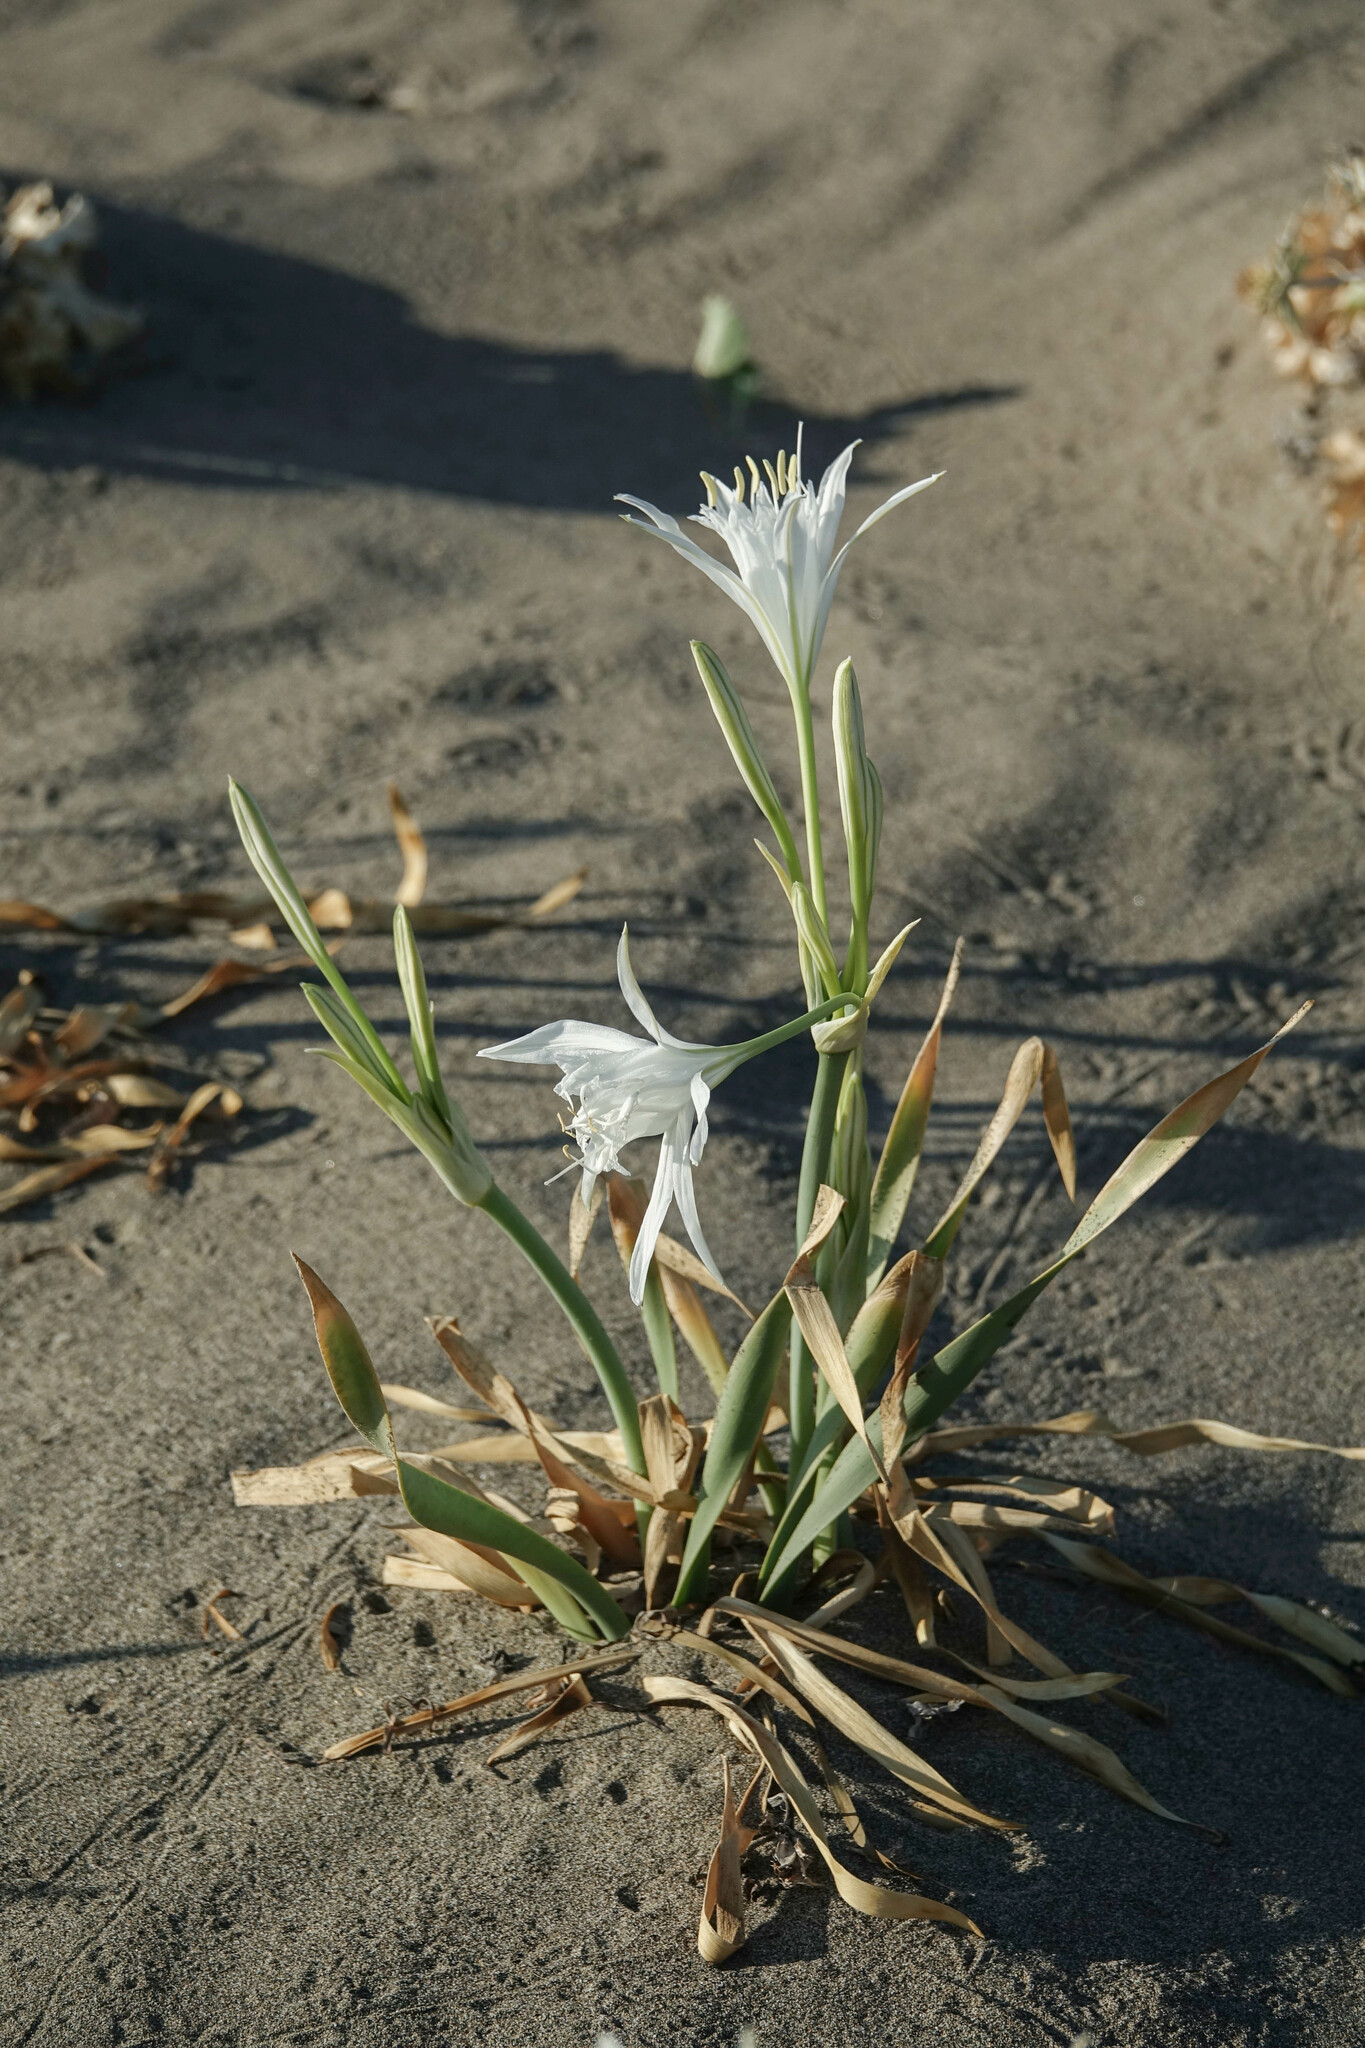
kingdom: Plantae
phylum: Tracheophyta
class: Liliopsida
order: Asparagales
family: Amaryllidaceae
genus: Pancratium
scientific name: Pancratium maritimum
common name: Sea-daffodil
